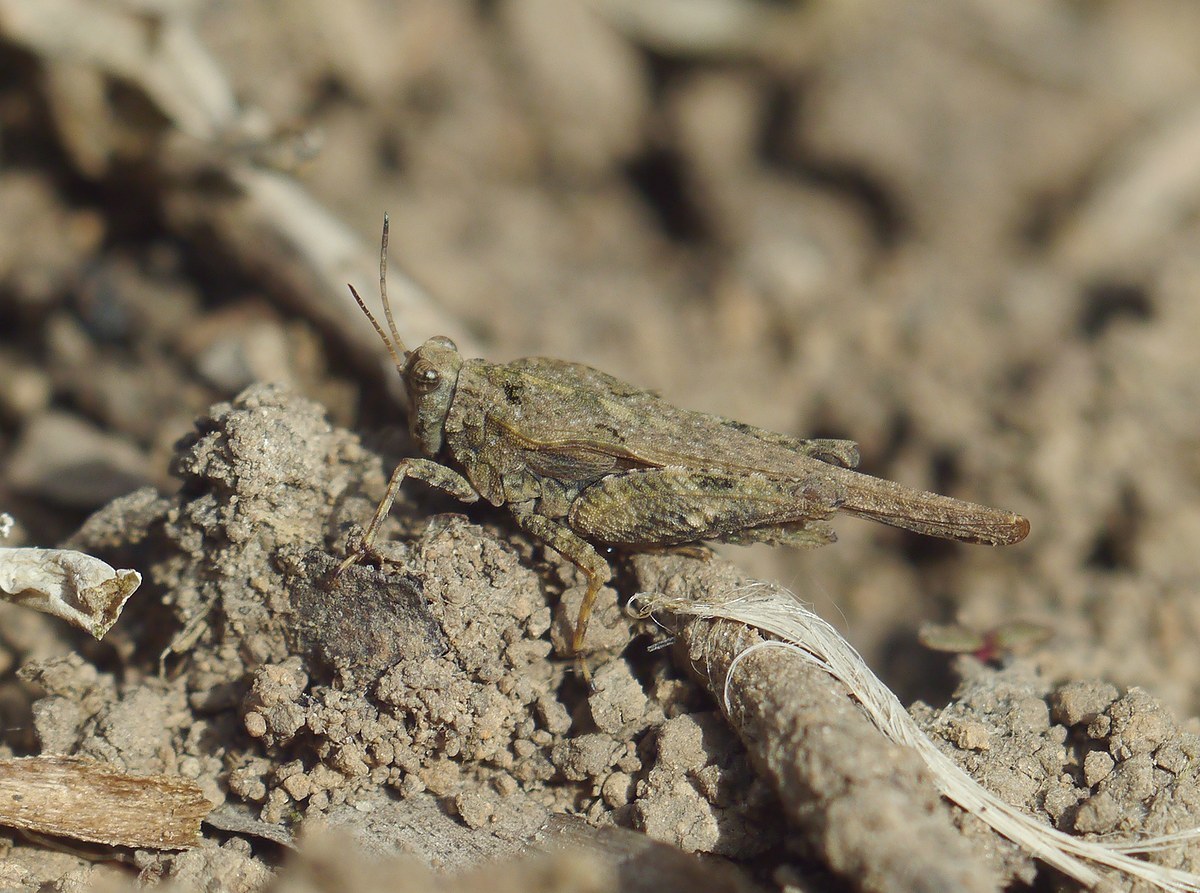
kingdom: Animalia
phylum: Arthropoda
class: Insecta
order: Orthoptera
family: Tetrigidae
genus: Tetrix
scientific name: Tetrix subulata
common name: Slender ground-hopper
